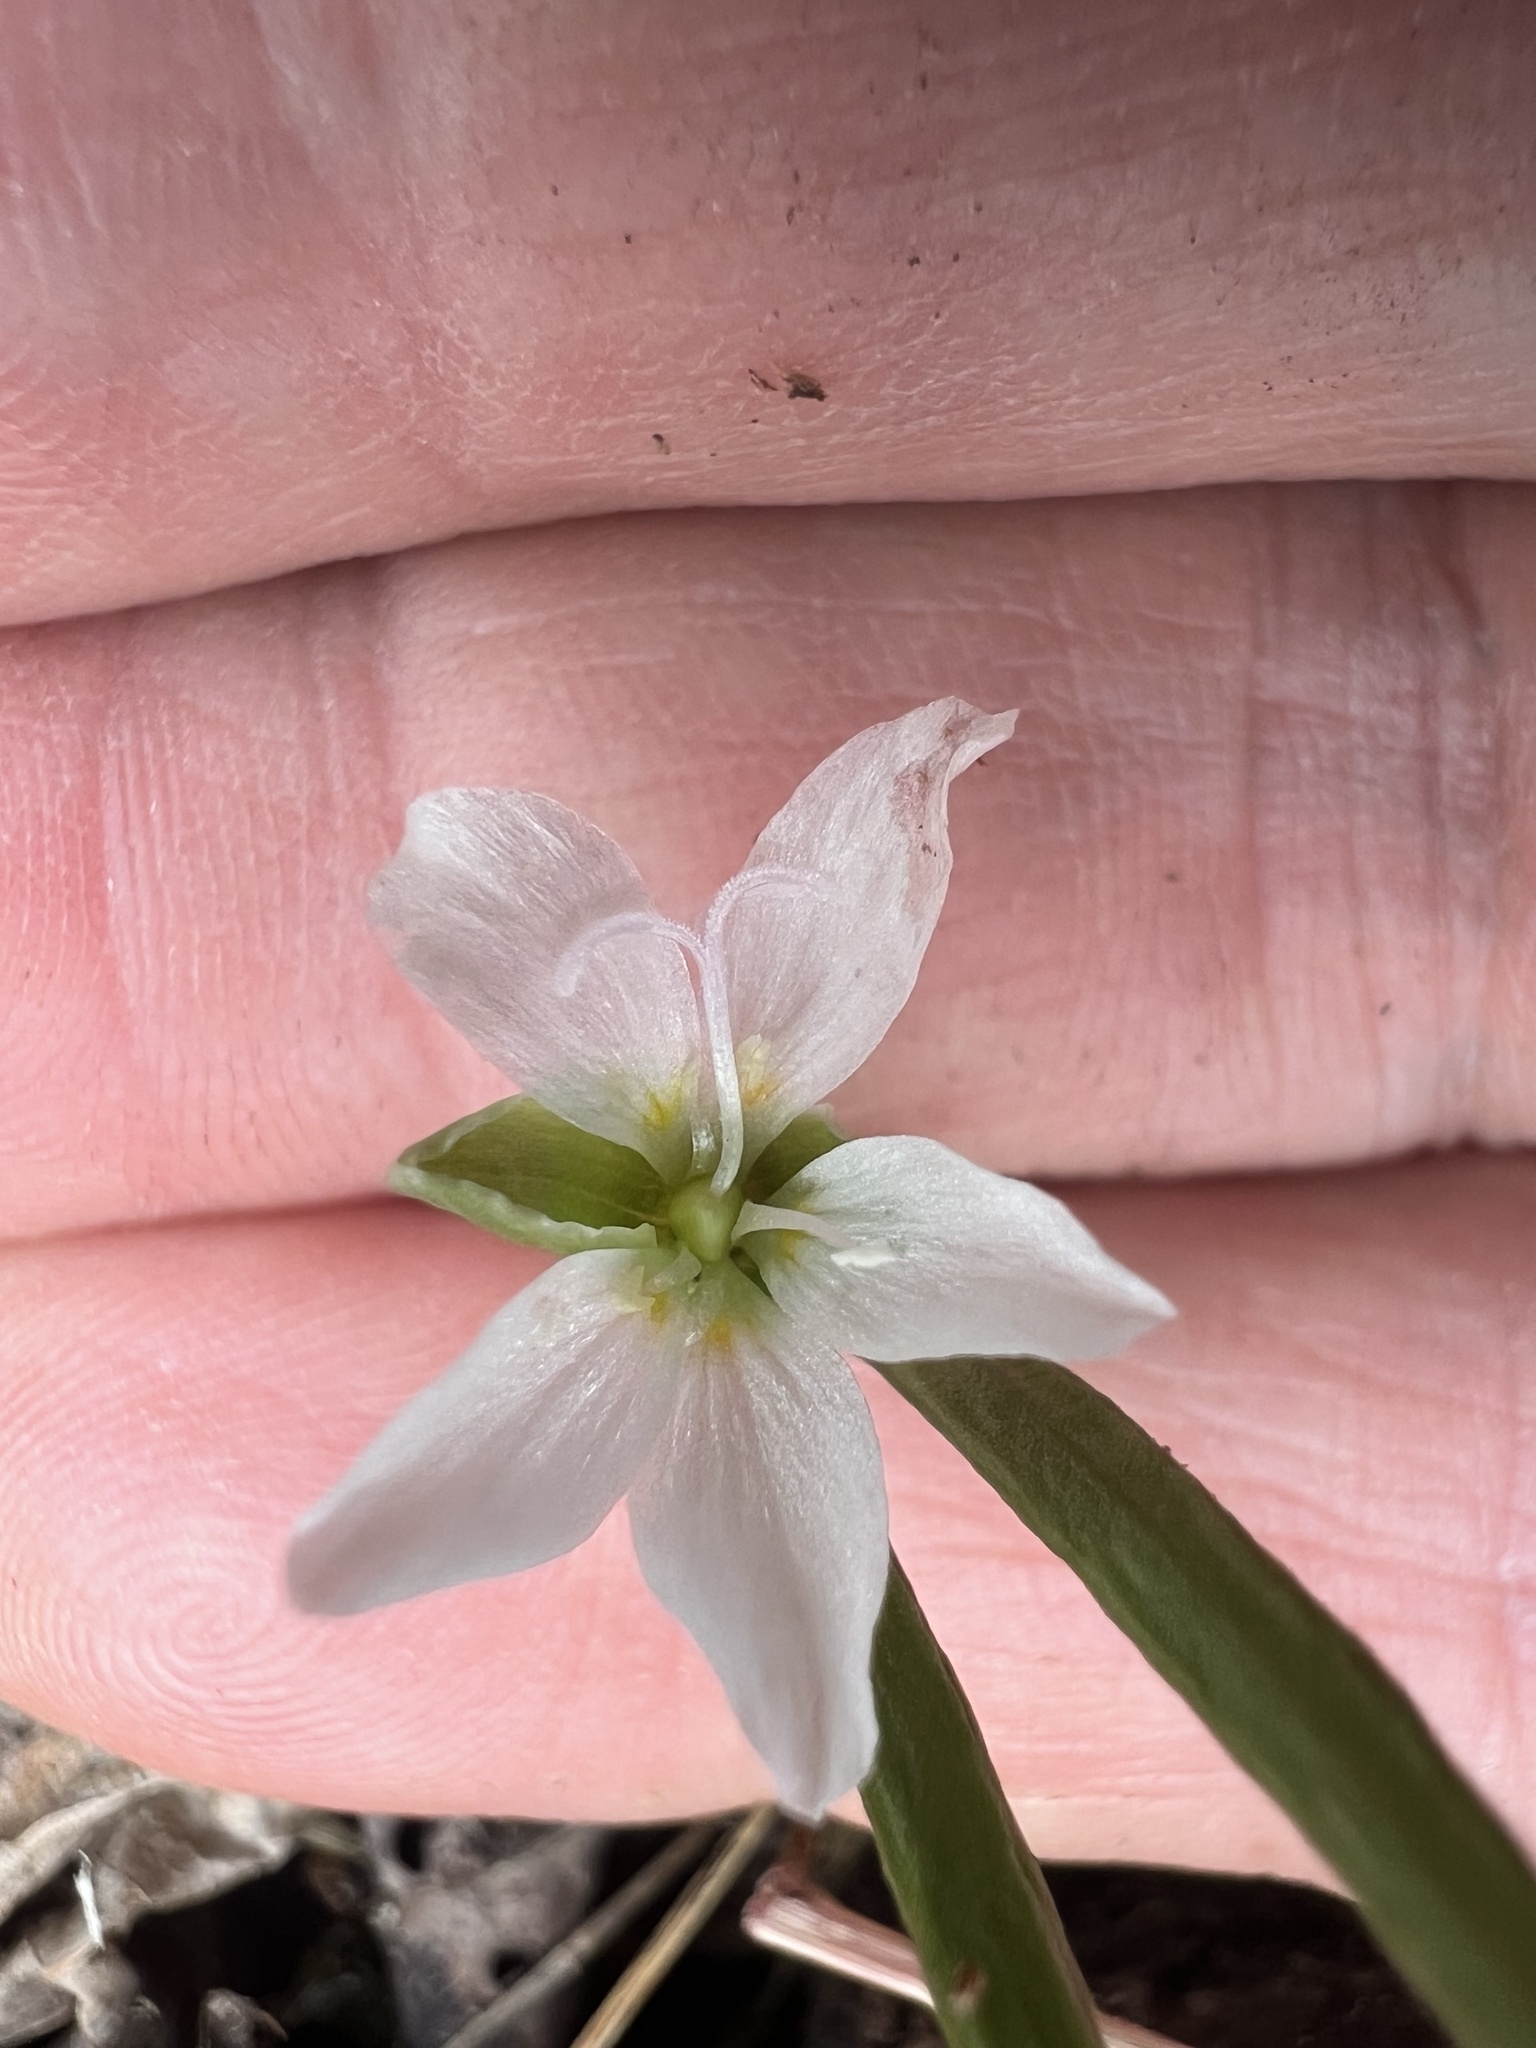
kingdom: Plantae
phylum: Tracheophyta
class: Magnoliopsida
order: Caryophyllales
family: Montiaceae
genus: Claytonia
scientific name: Claytonia virginica
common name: Virginia springbeauty
